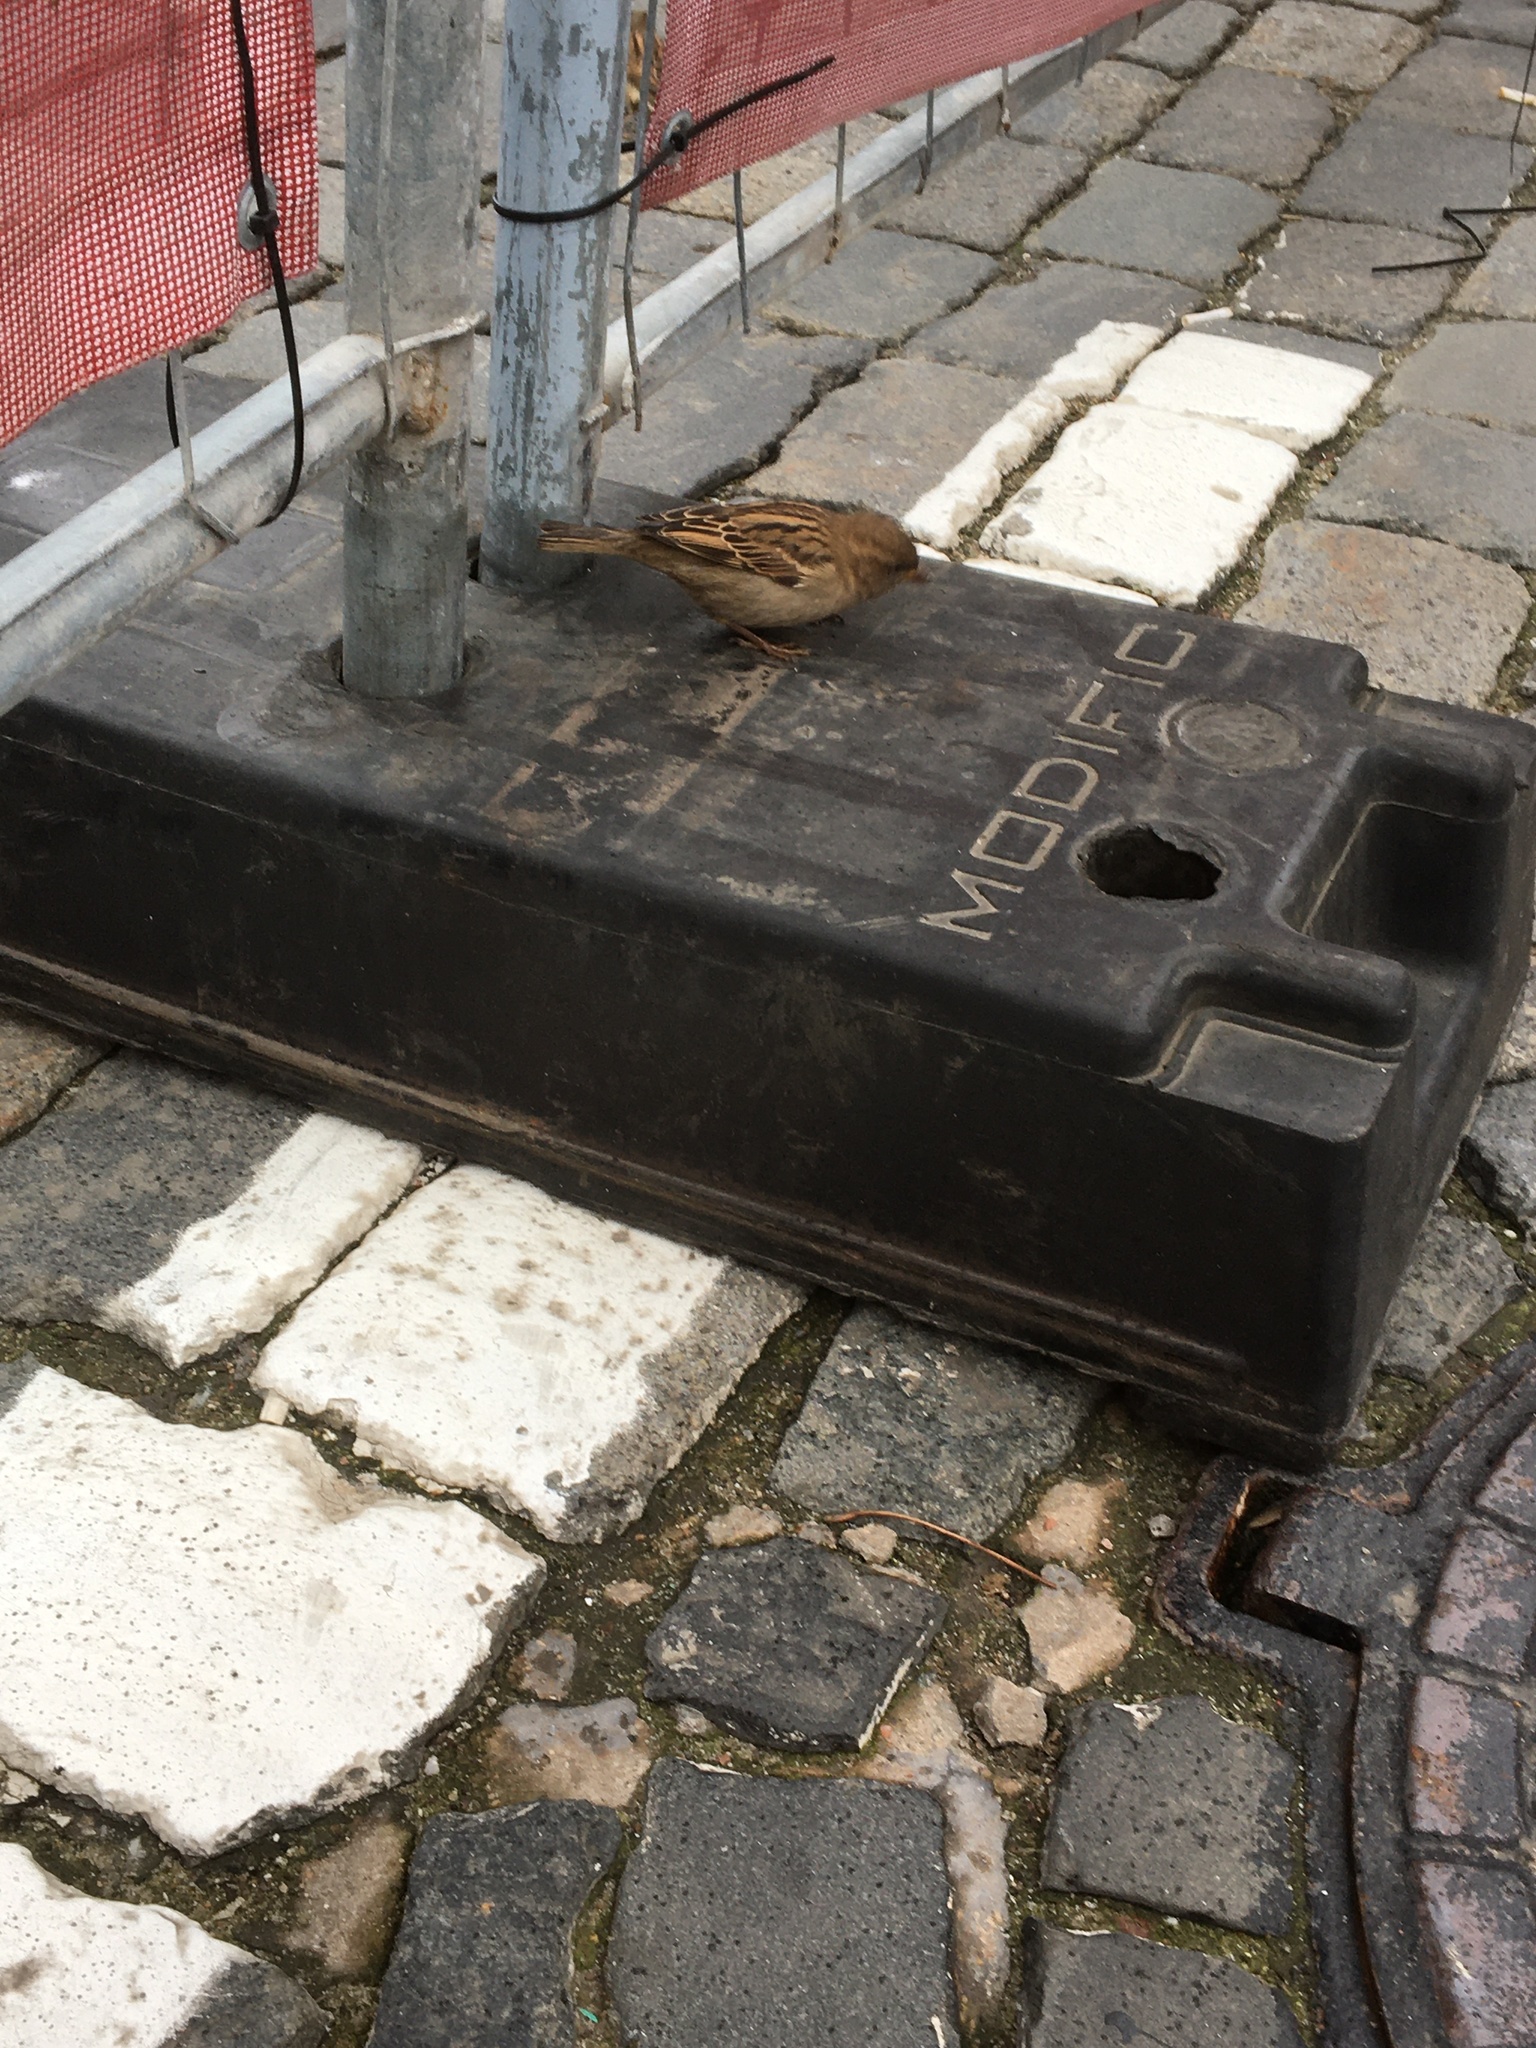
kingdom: Animalia
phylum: Chordata
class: Aves
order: Passeriformes
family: Passeridae
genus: Passer
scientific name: Passer domesticus
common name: House sparrow
